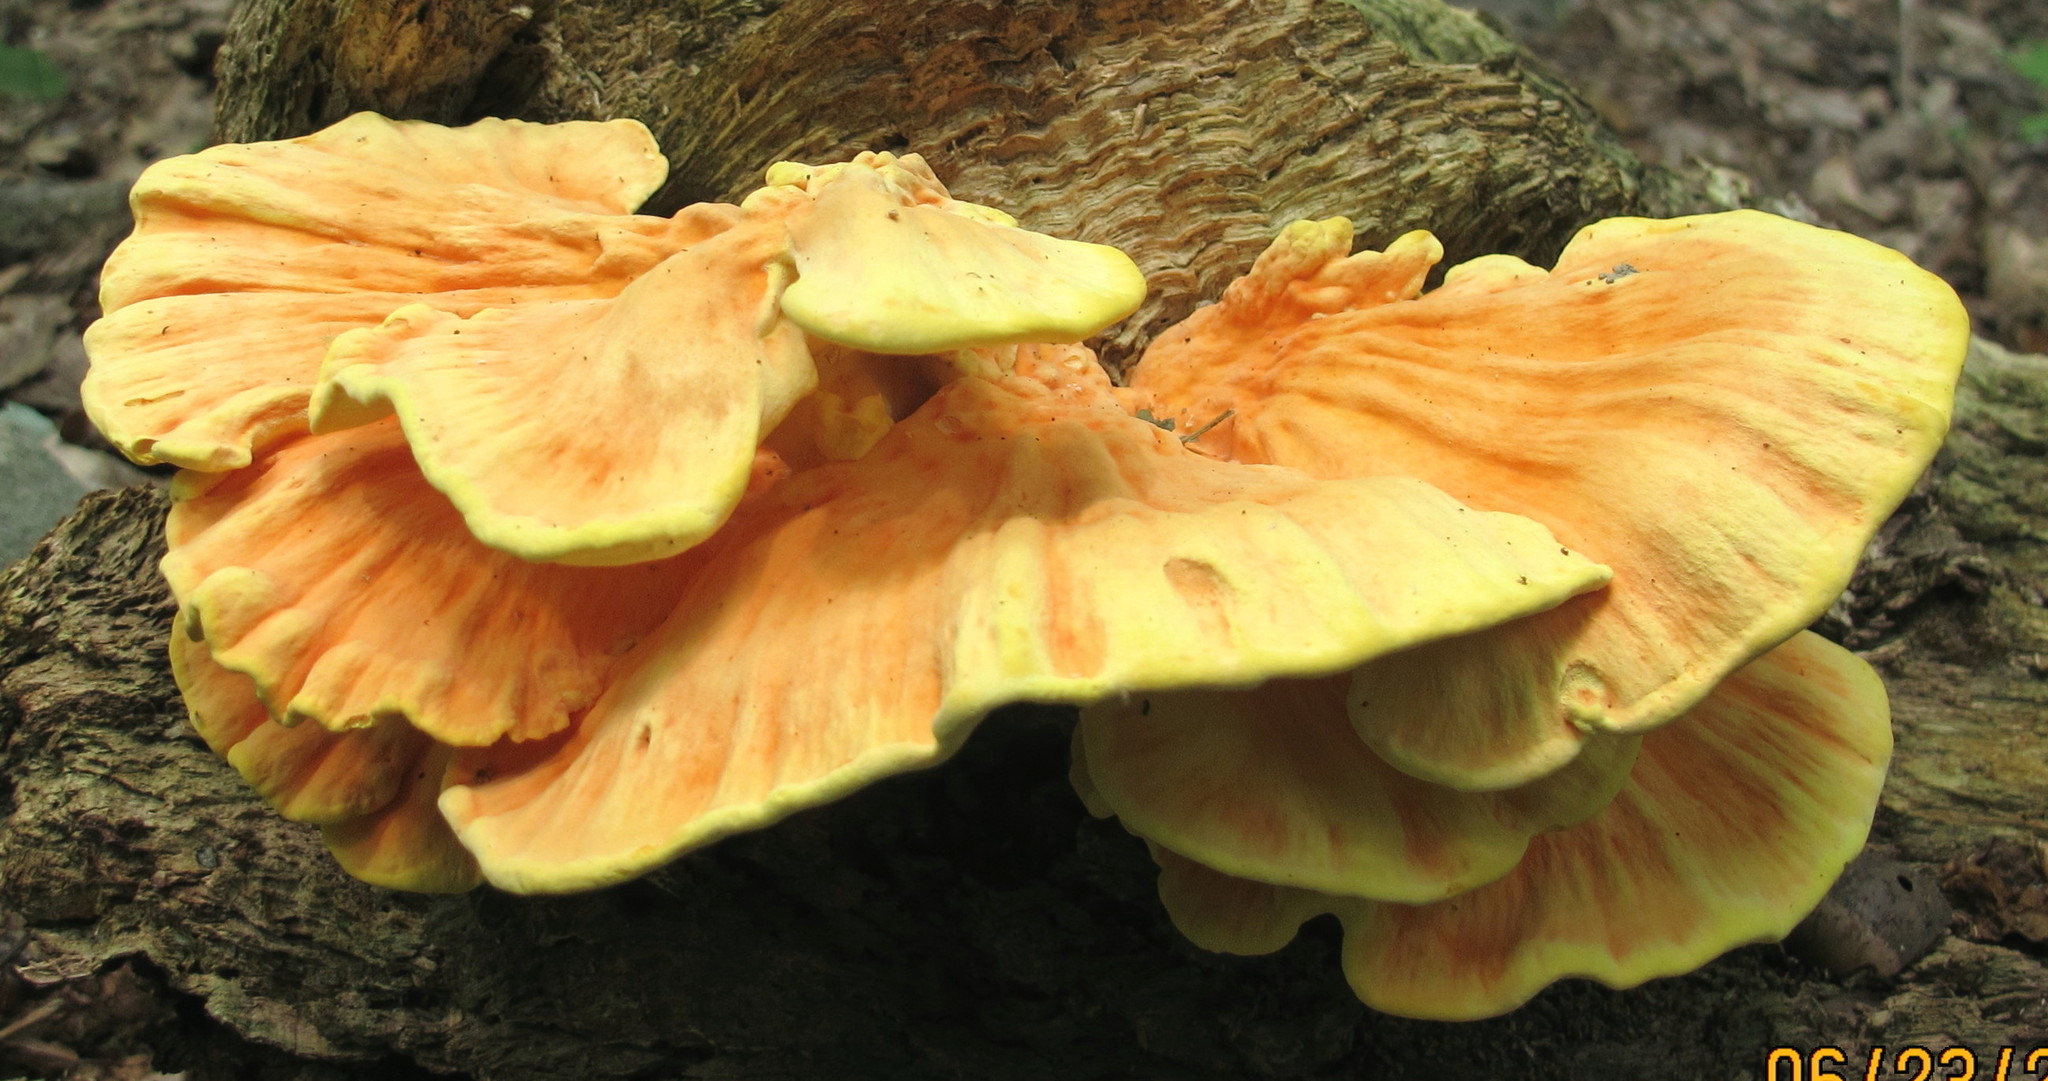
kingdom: Fungi
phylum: Basidiomycota
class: Agaricomycetes
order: Polyporales
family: Laetiporaceae
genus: Laetiporus
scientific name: Laetiporus sulphureus
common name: Chicken of the woods
